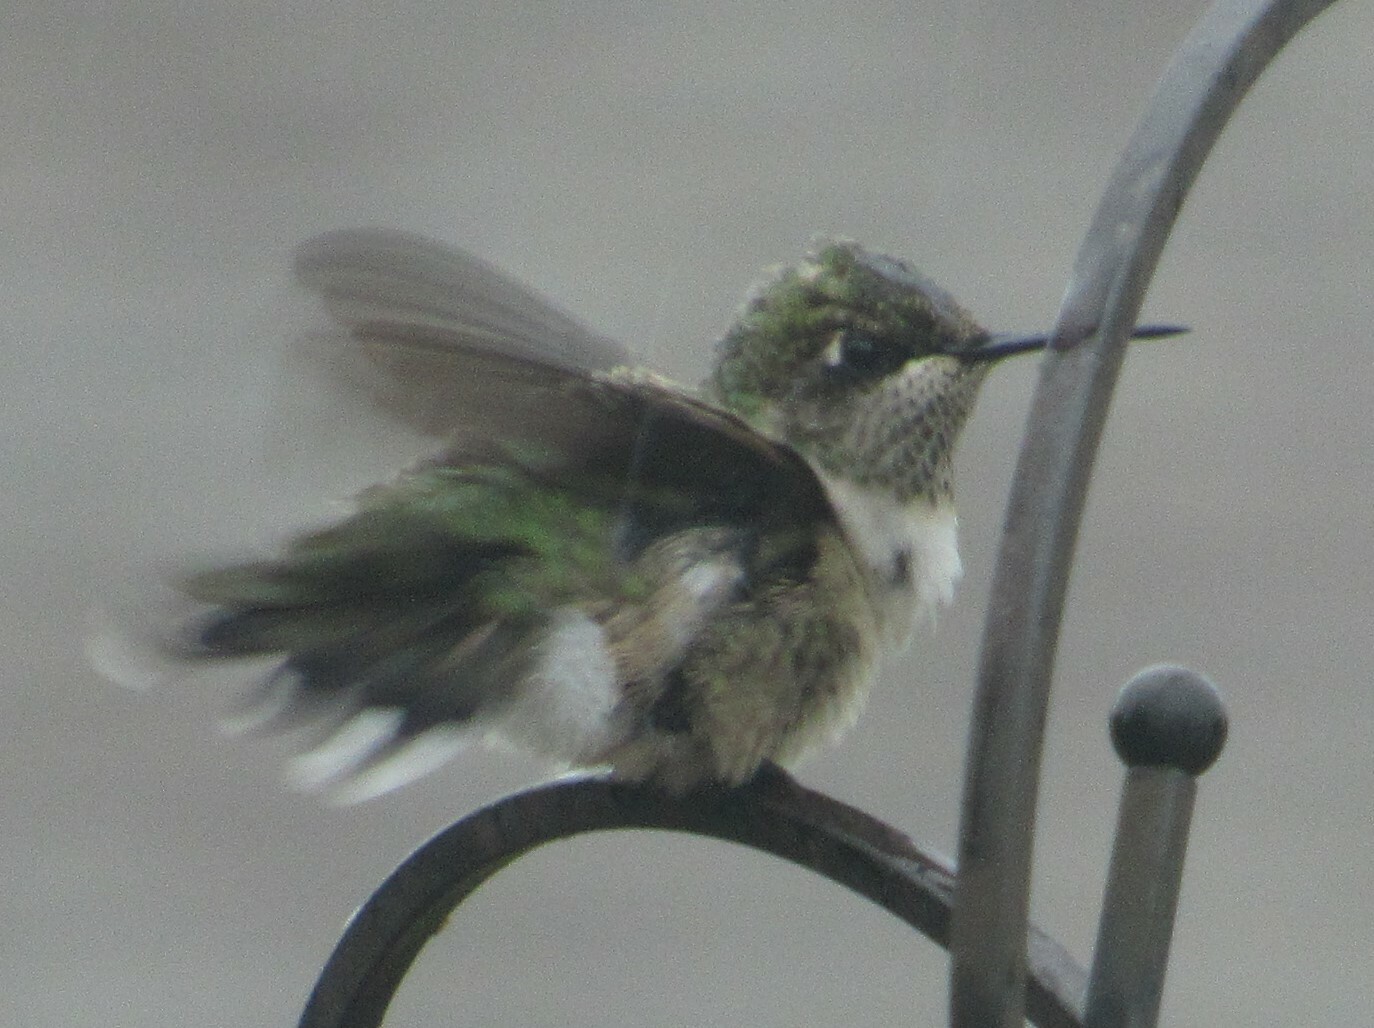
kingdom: Animalia
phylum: Chordata
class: Aves
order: Apodiformes
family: Trochilidae
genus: Archilochus
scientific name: Archilochus colubris
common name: Ruby-throated hummingbird
